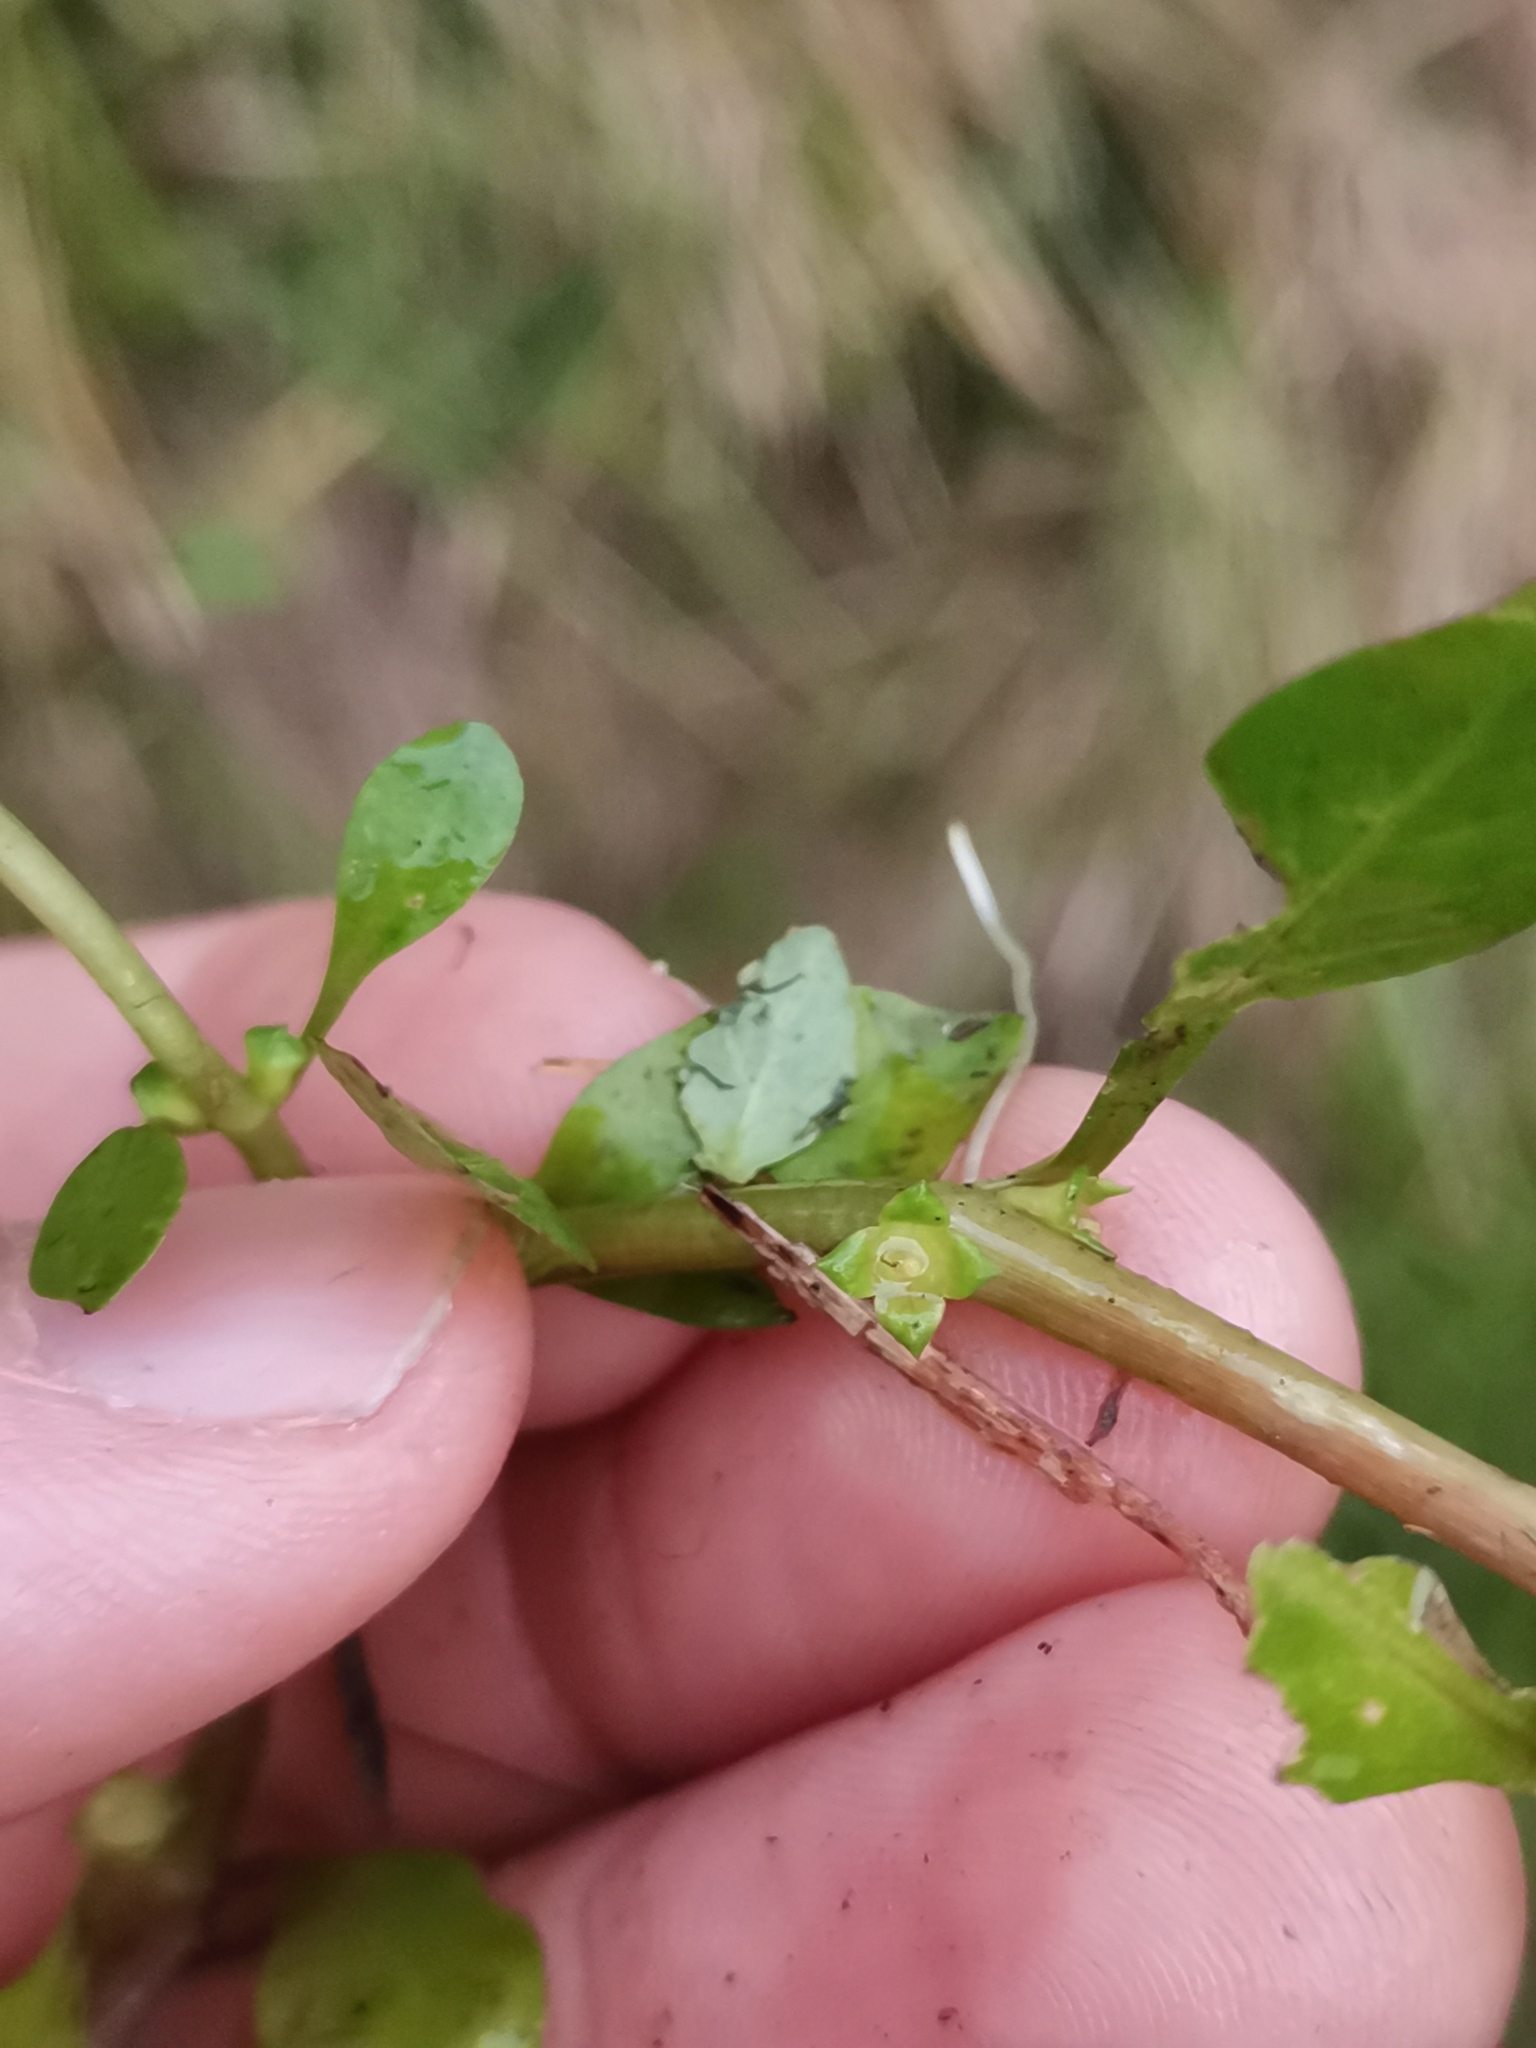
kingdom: Plantae
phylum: Tracheophyta
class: Magnoliopsida
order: Myrtales
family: Onagraceae
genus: Ludwigia
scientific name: Ludwigia palustris
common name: Hampshire-purslane
